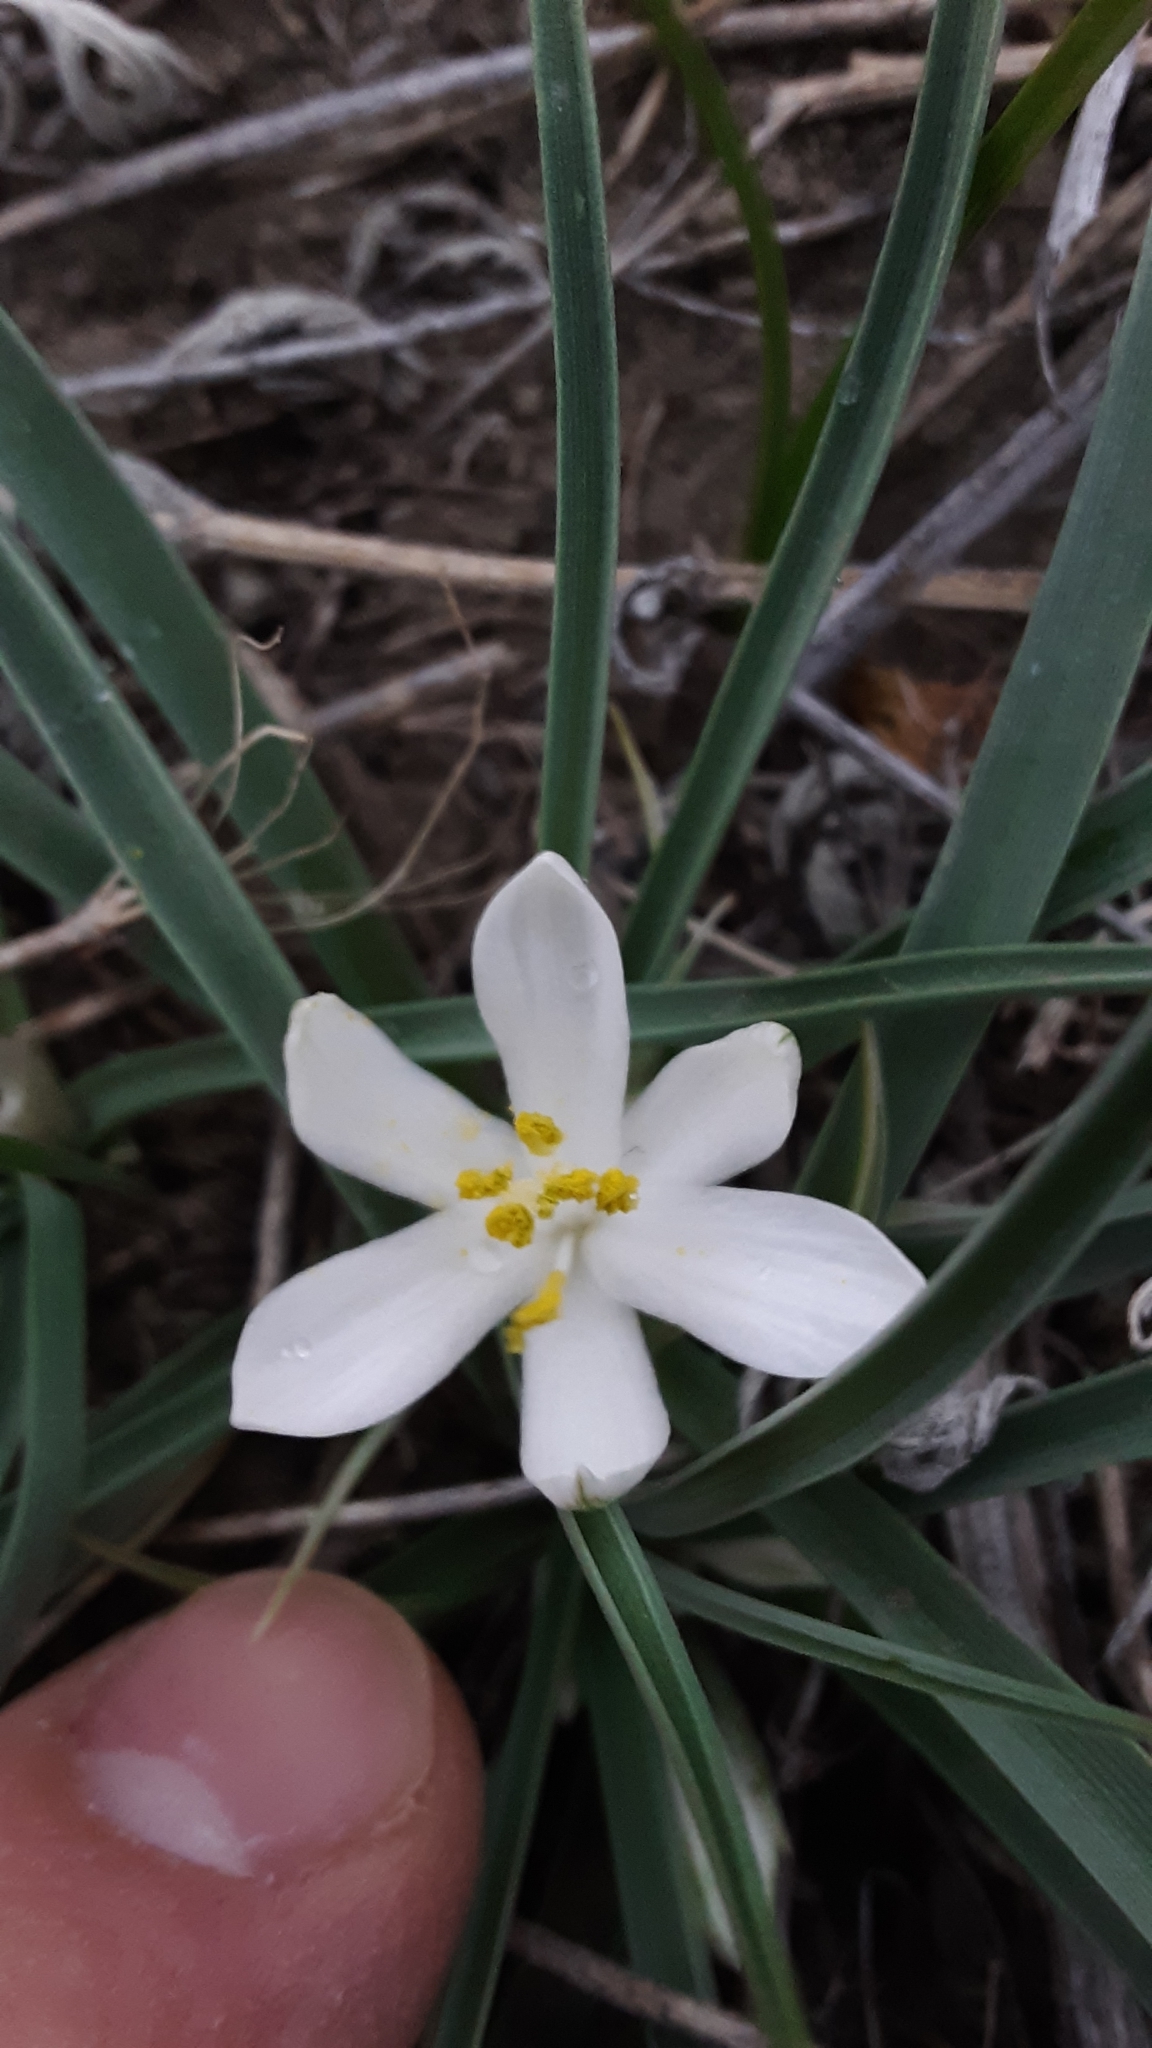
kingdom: Plantae
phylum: Tracheophyta
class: Liliopsida
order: Asparagales
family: Asparagaceae
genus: Leucocrinum
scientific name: Leucocrinum montanum
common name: Mountain-lily
